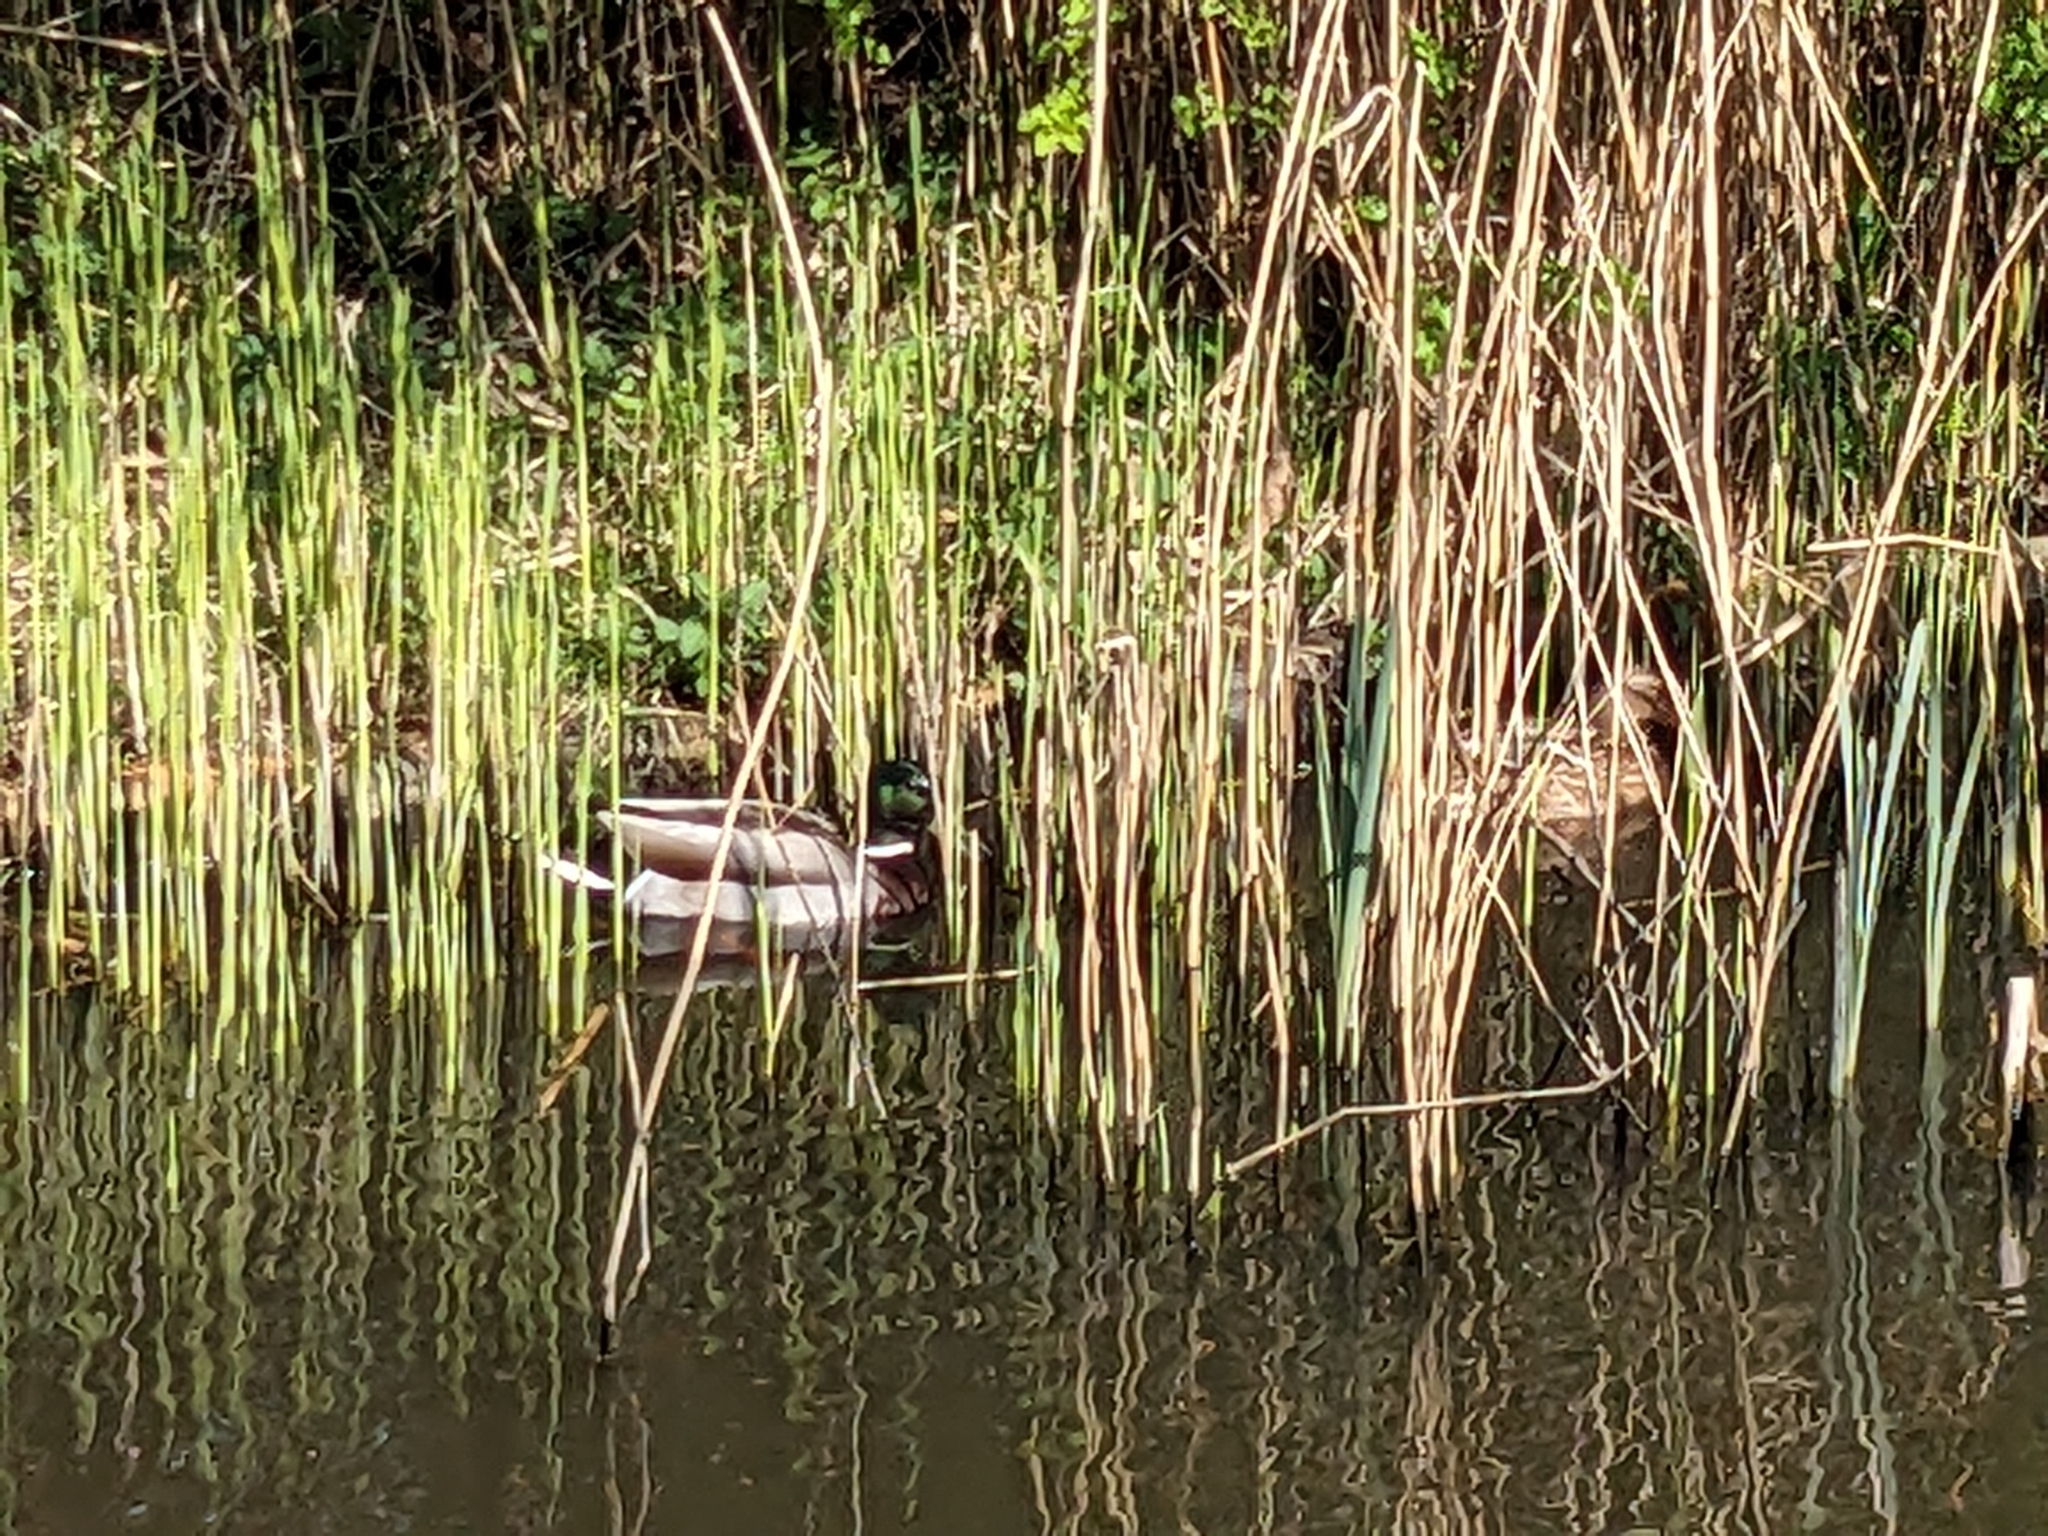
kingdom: Animalia
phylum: Chordata
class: Aves
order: Anseriformes
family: Anatidae
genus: Anas
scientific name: Anas platyrhynchos
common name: Mallard
